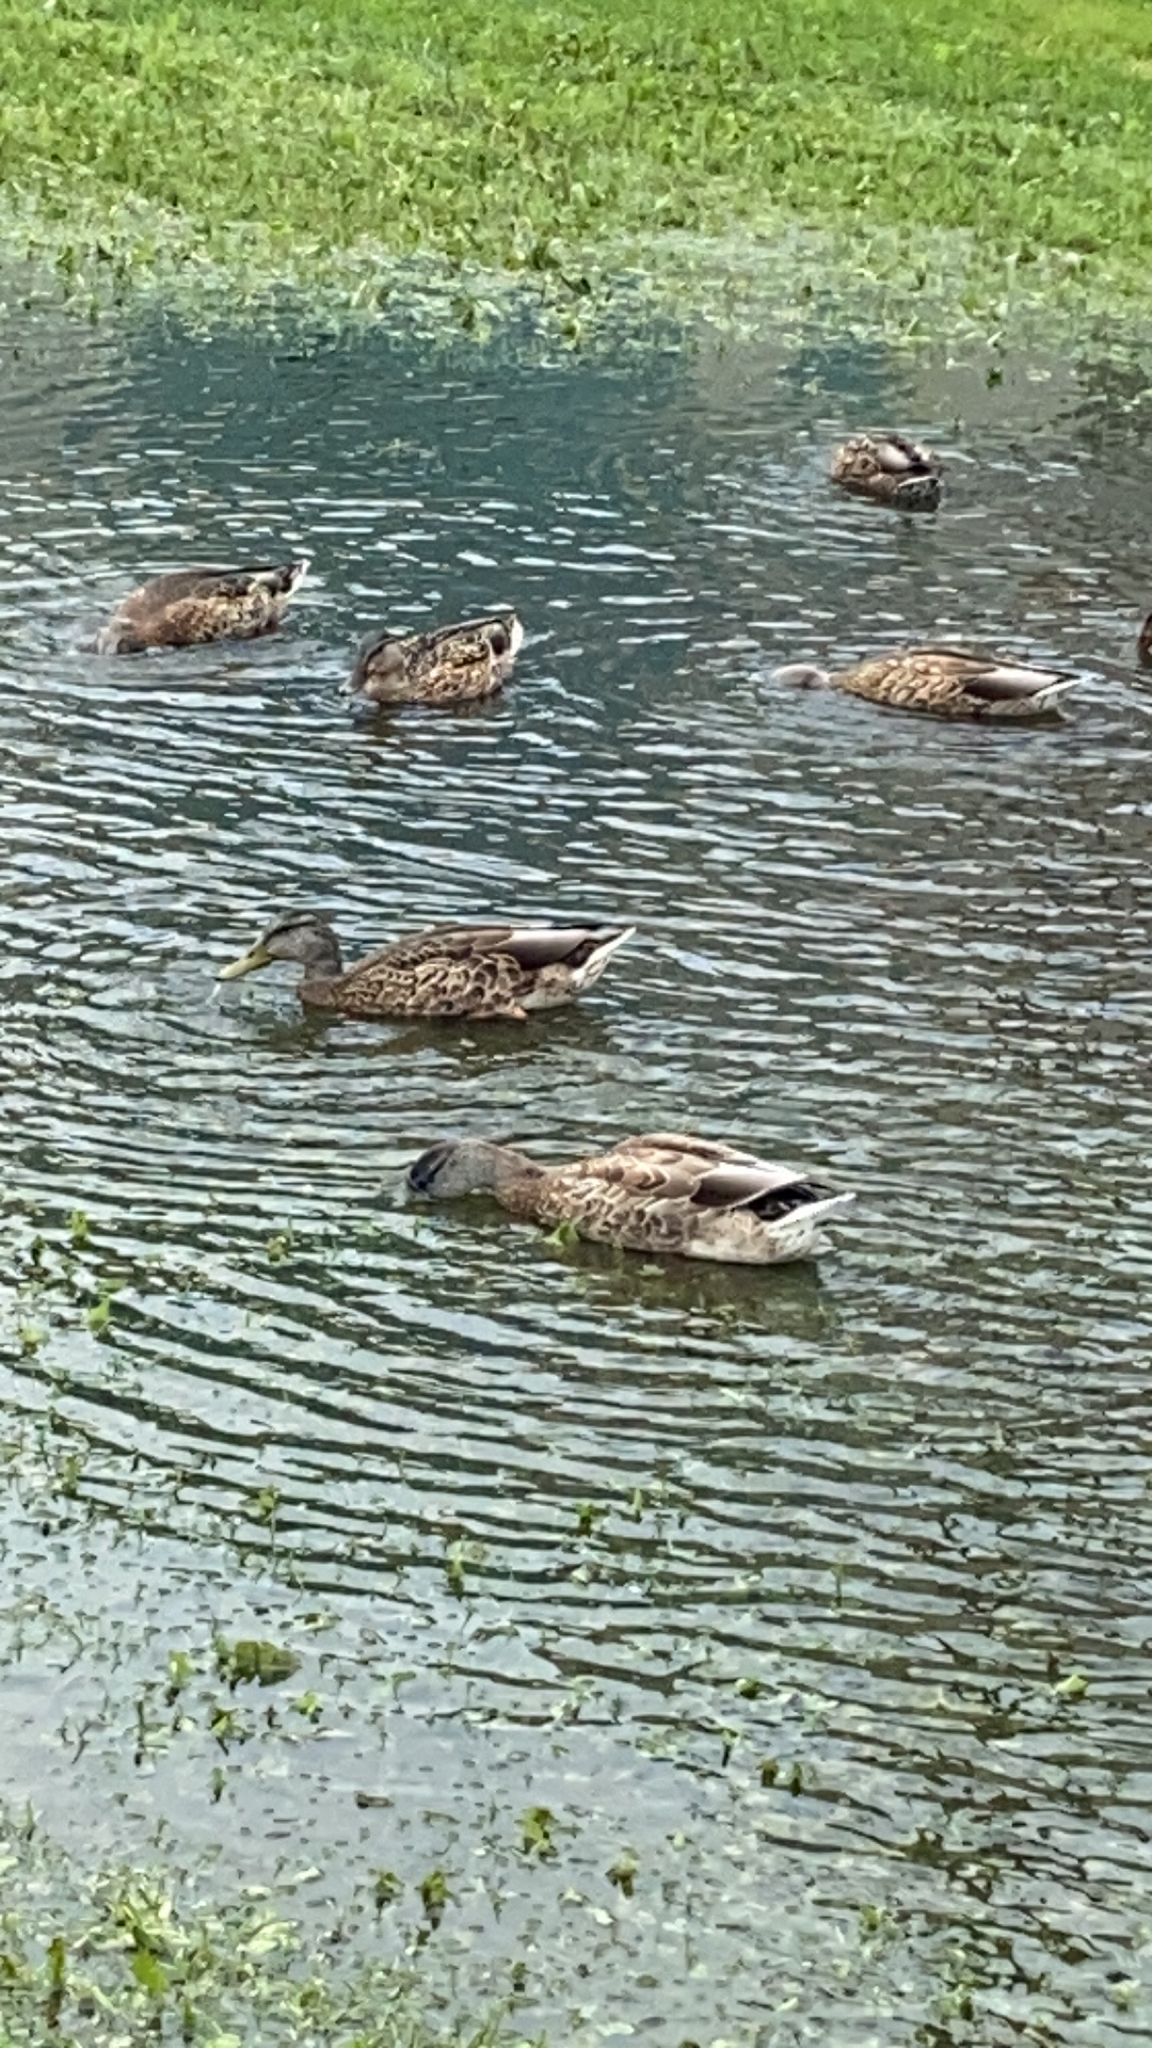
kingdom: Animalia
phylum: Chordata
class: Aves
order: Anseriformes
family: Anatidae
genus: Anas
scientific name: Anas platyrhynchos
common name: Mallard
